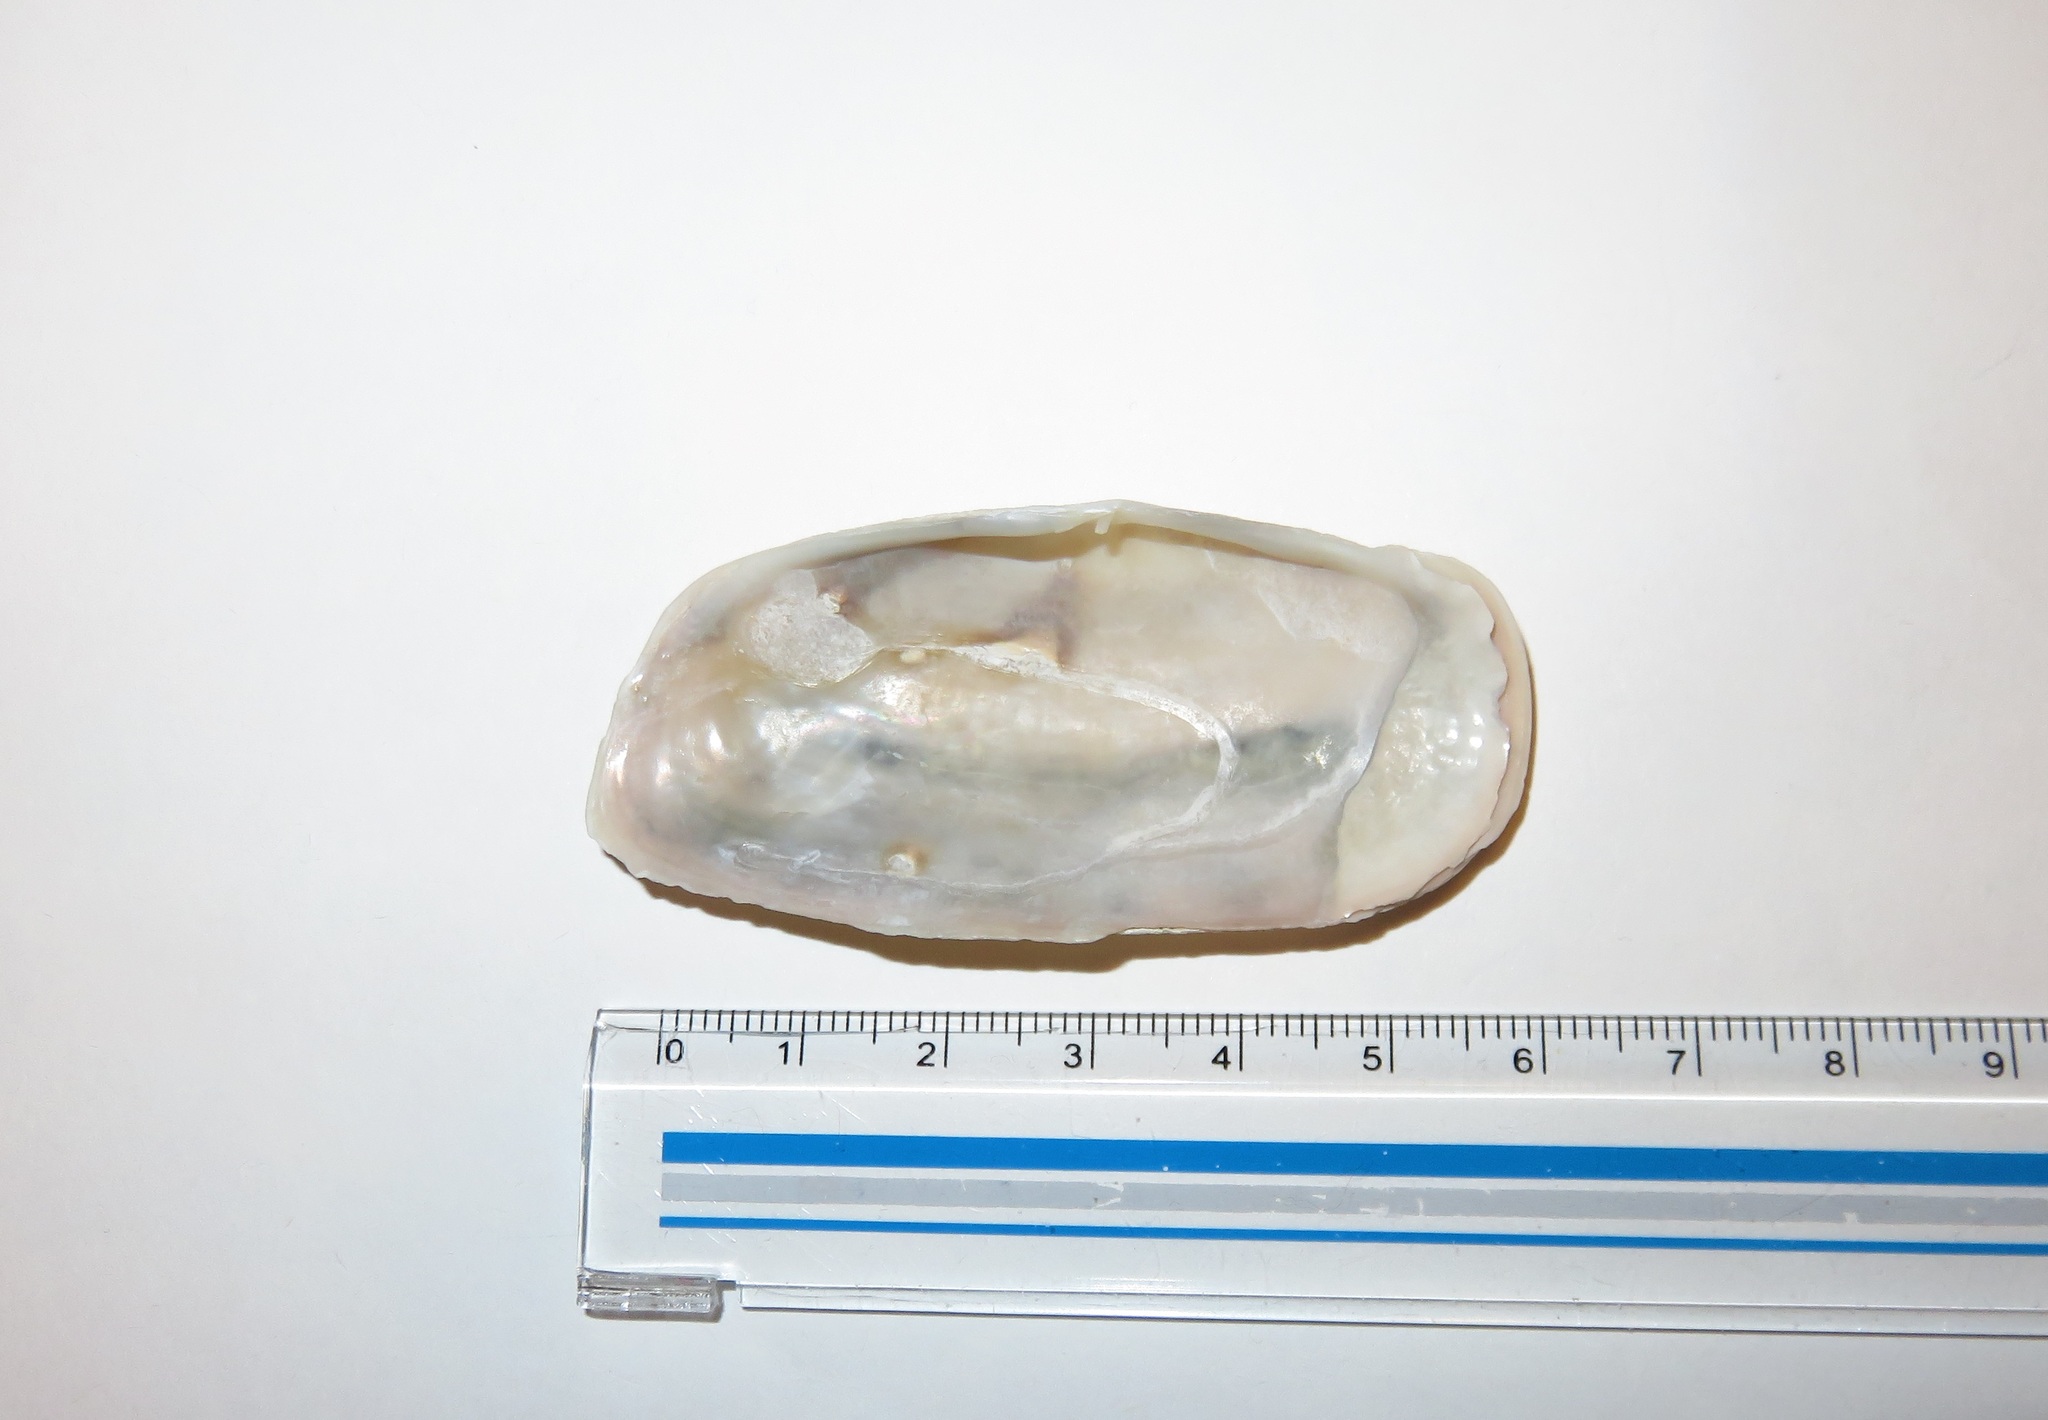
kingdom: Animalia
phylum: Mollusca
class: Bivalvia
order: Cardiida
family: Solecurtidae
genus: Solecurtus
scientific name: Solecurtus divaricatus
